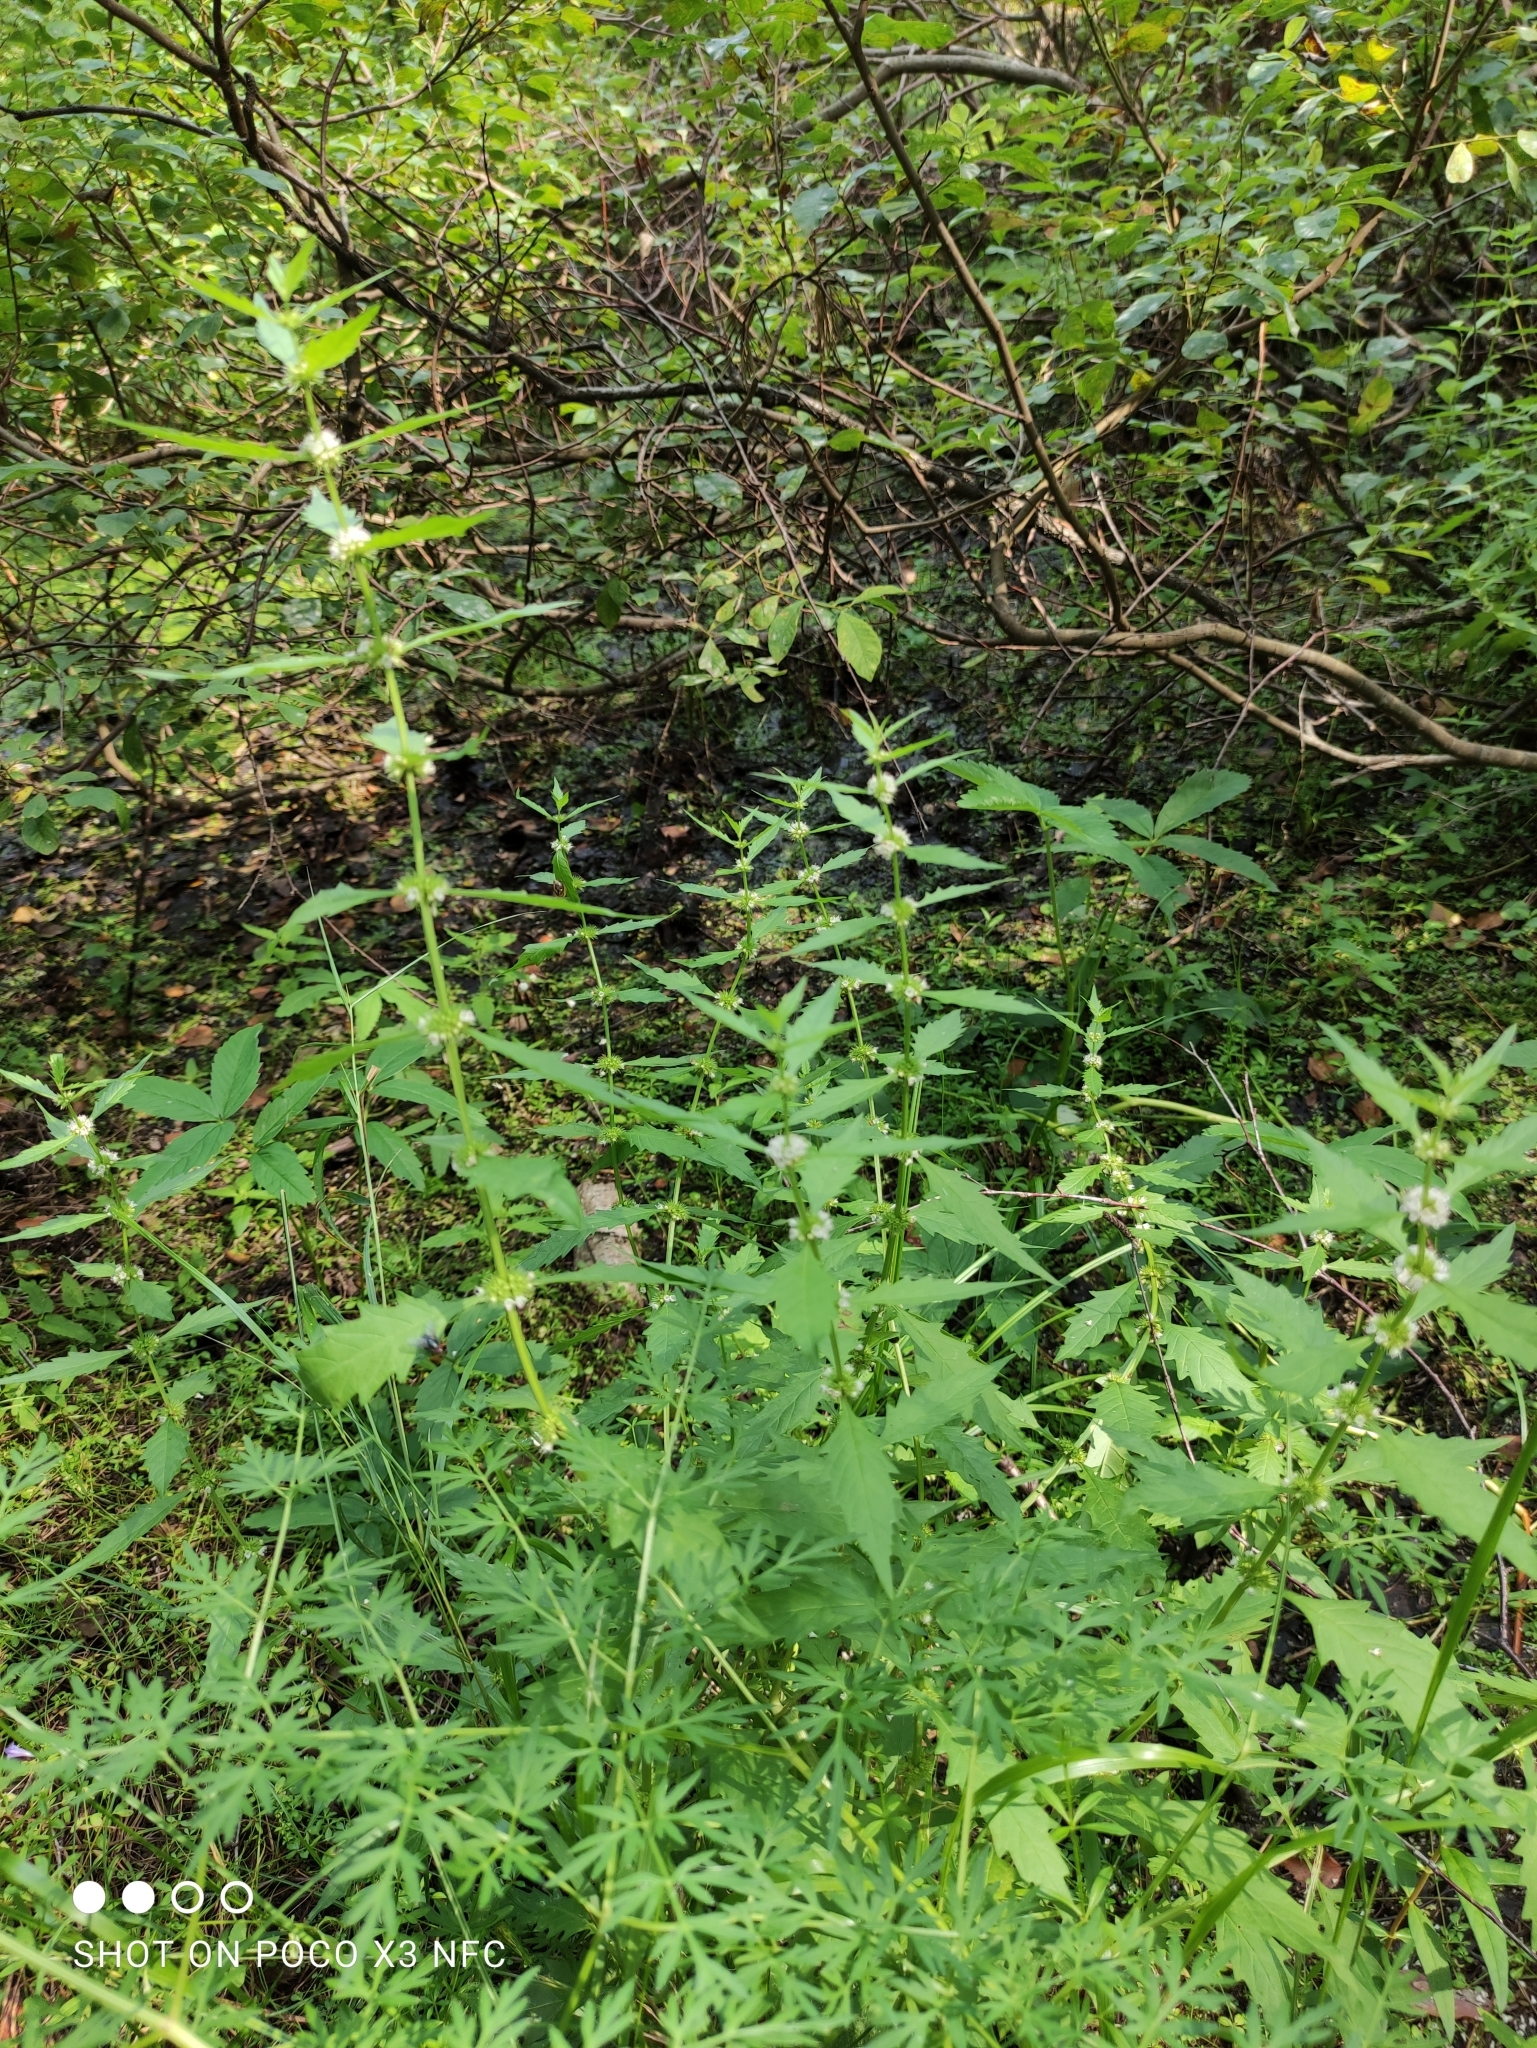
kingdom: Plantae
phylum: Tracheophyta
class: Magnoliopsida
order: Lamiales
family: Lamiaceae
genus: Lycopus
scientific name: Lycopus europaeus
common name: European bugleweed
